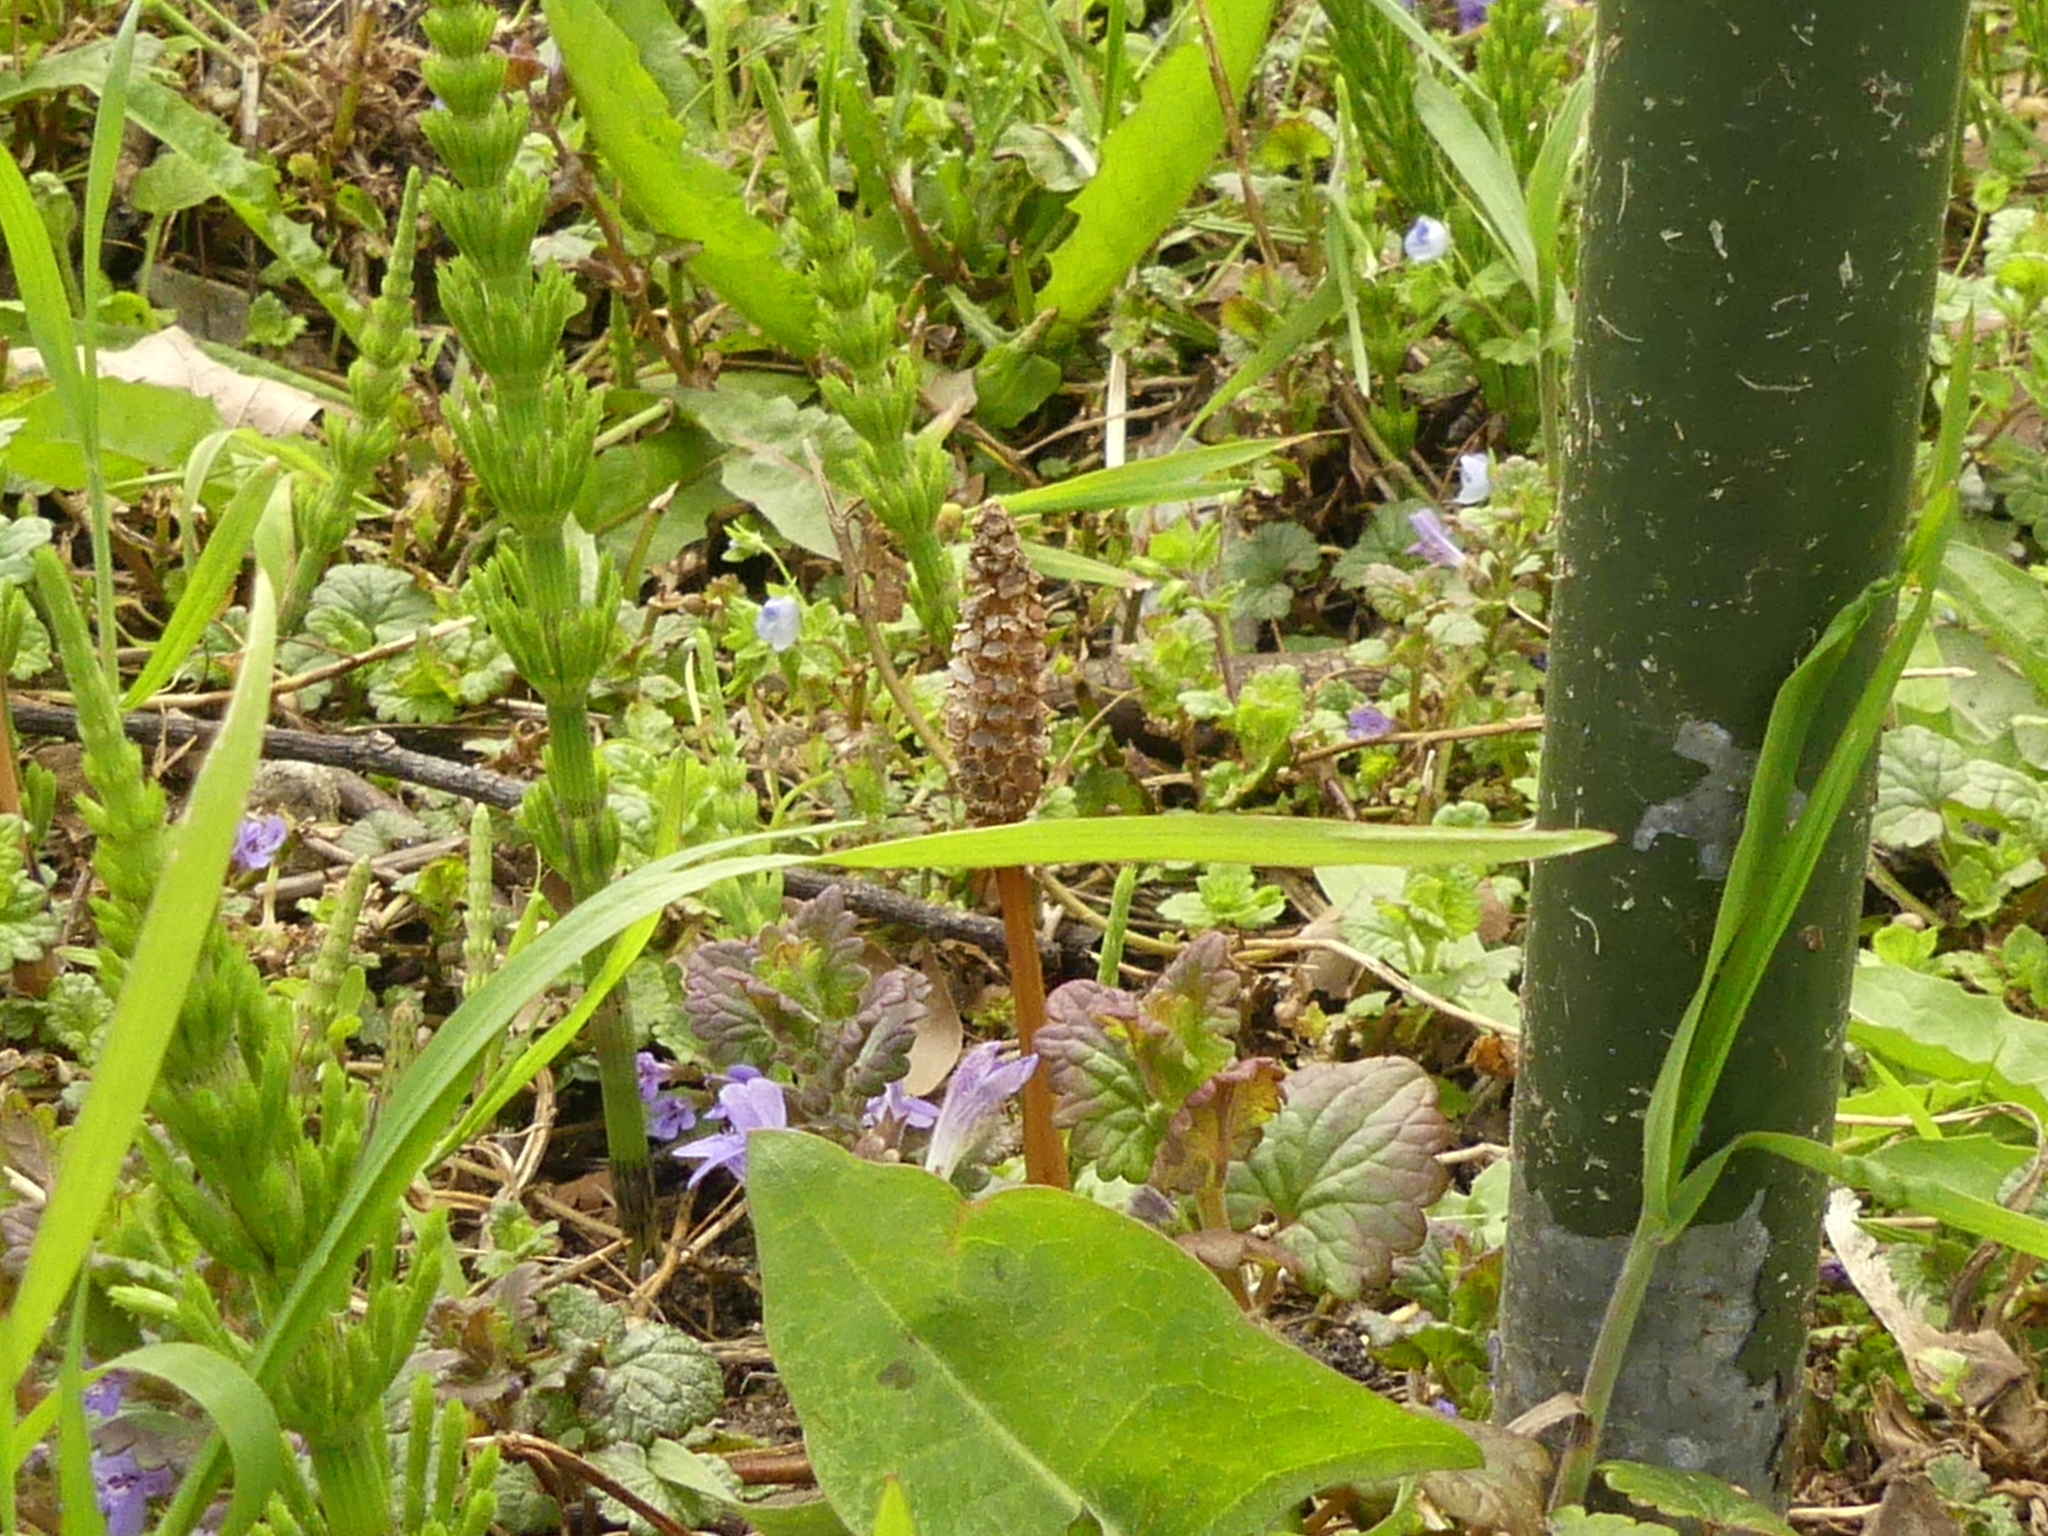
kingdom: Plantae
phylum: Tracheophyta
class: Polypodiopsida
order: Equisetales
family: Equisetaceae
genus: Equisetum
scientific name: Equisetum arvense
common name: Field horsetail
